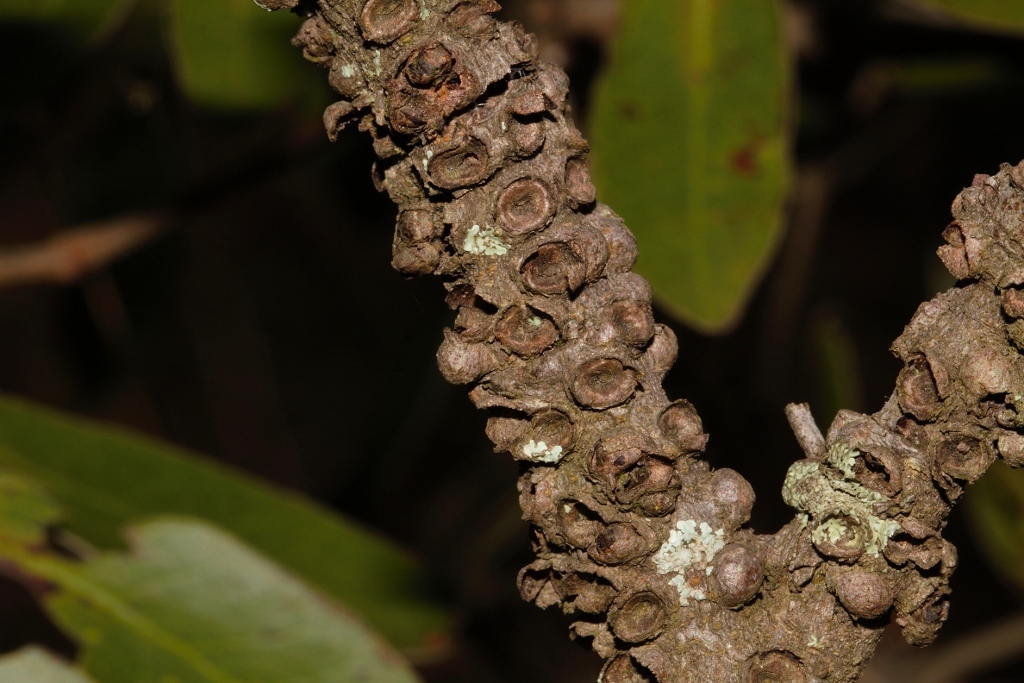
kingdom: Plantae
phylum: Tracheophyta
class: Magnoliopsida
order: Cucurbitales
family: Apodanthaceae
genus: Pilostyles
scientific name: Pilostyles aethiopica
